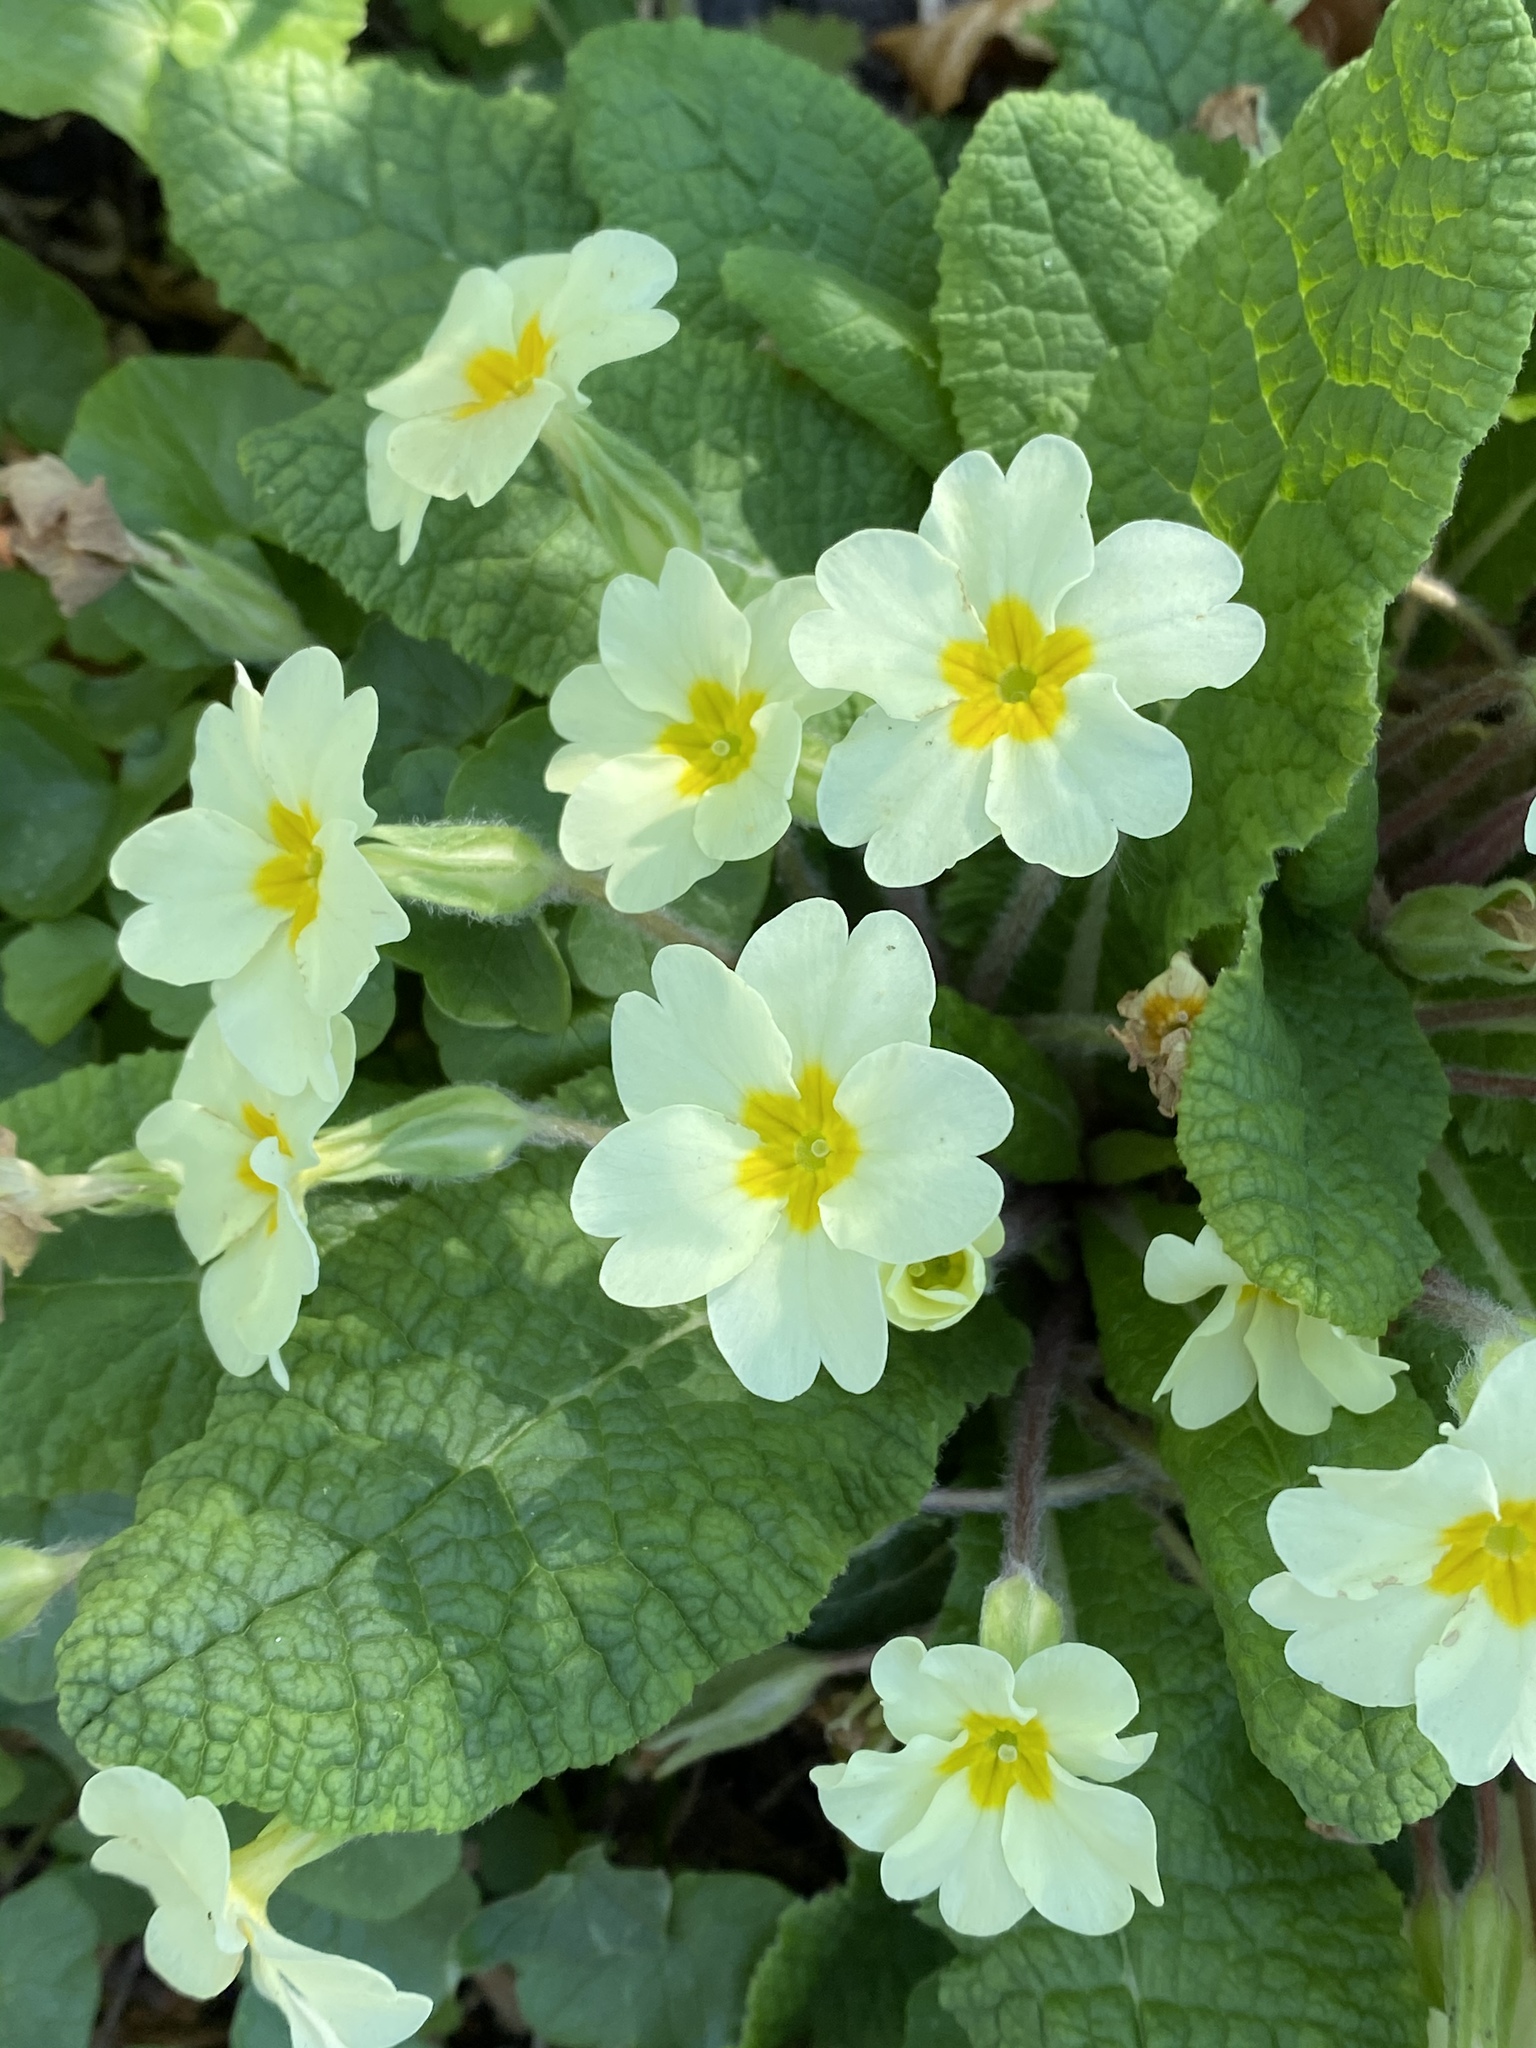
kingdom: Plantae
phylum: Tracheophyta
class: Magnoliopsida
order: Ericales
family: Primulaceae
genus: Primula
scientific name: Primula vulgaris
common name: Primrose
